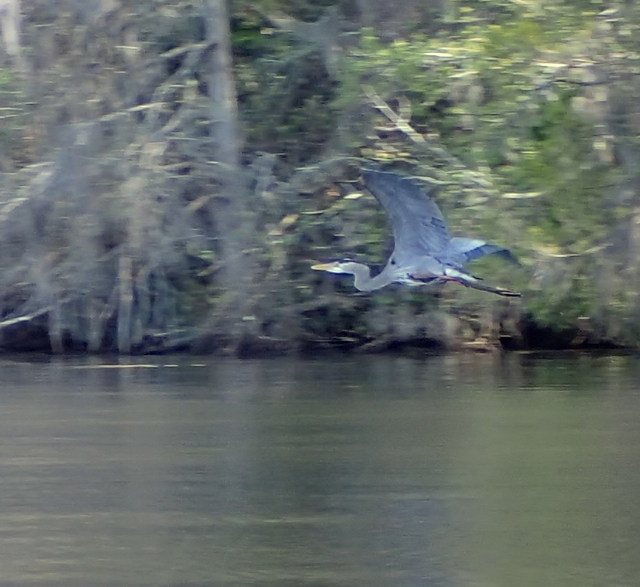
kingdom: Animalia
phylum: Chordata
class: Aves
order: Pelecaniformes
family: Ardeidae
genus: Ardea
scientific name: Ardea herodias
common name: Great blue heron
